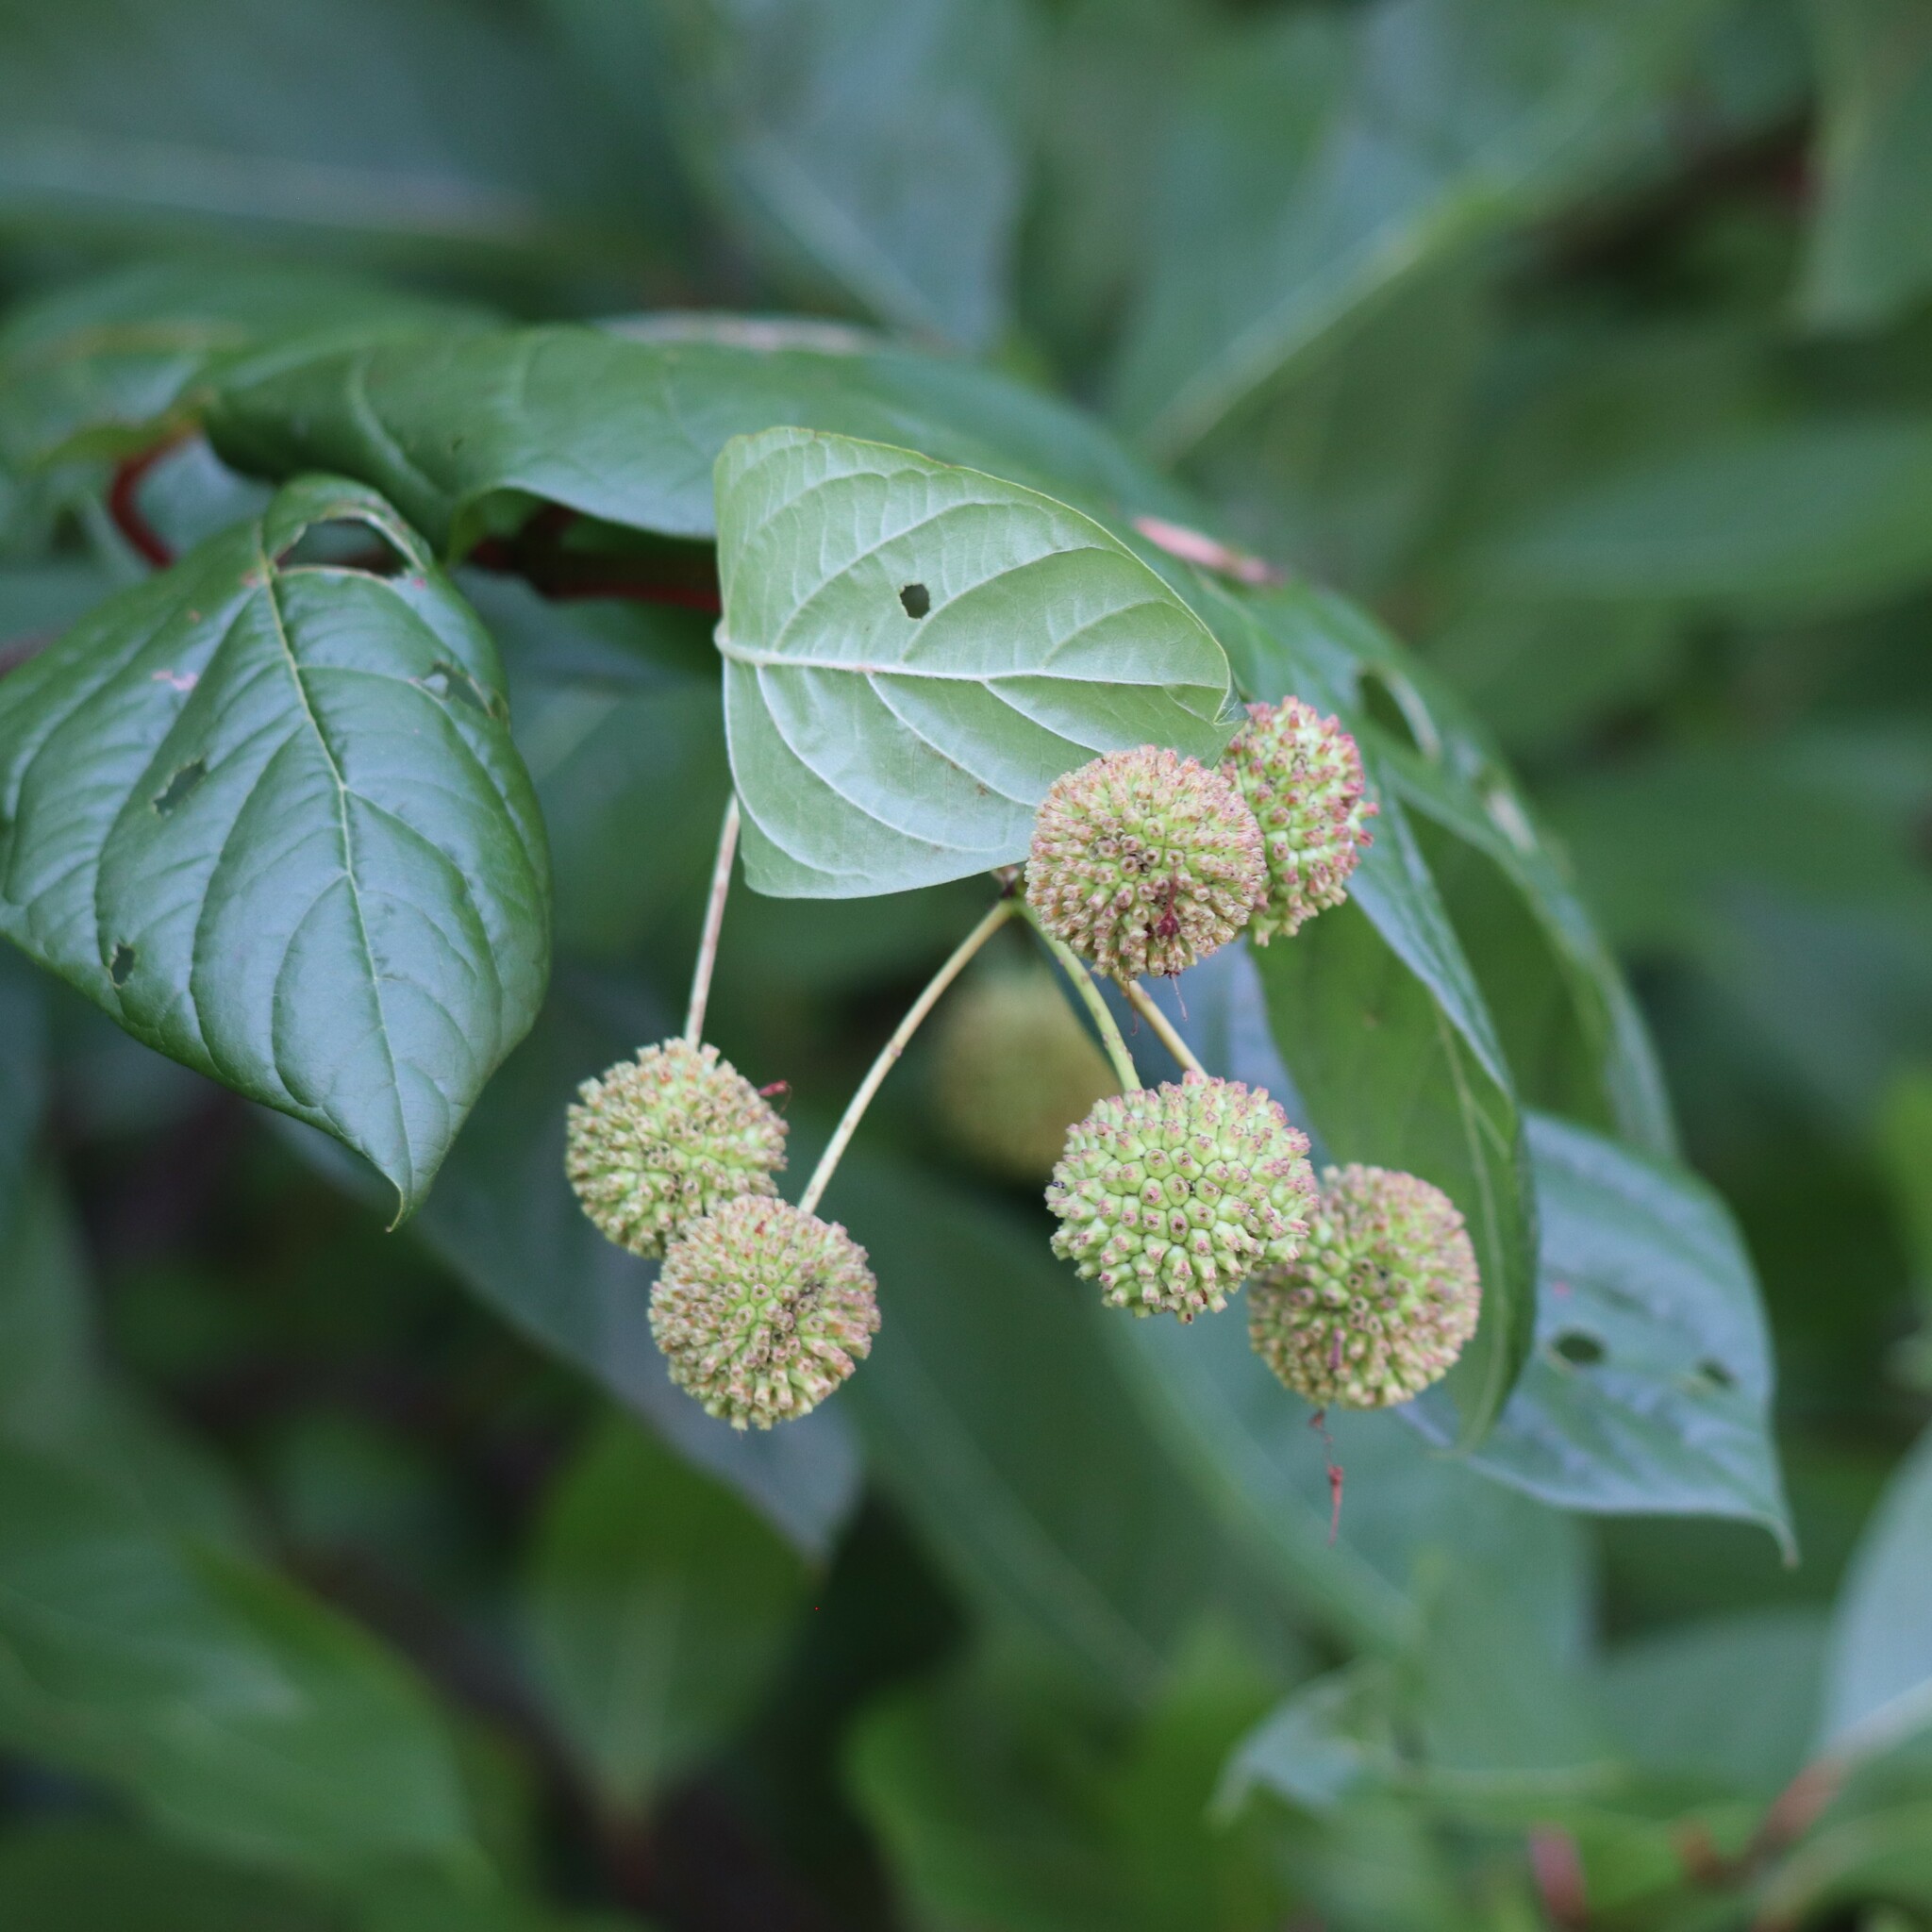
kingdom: Plantae
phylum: Tracheophyta
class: Magnoliopsida
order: Gentianales
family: Rubiaceae
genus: Cephalanthus
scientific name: Cephalanthus occidentalis
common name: Button-willow
